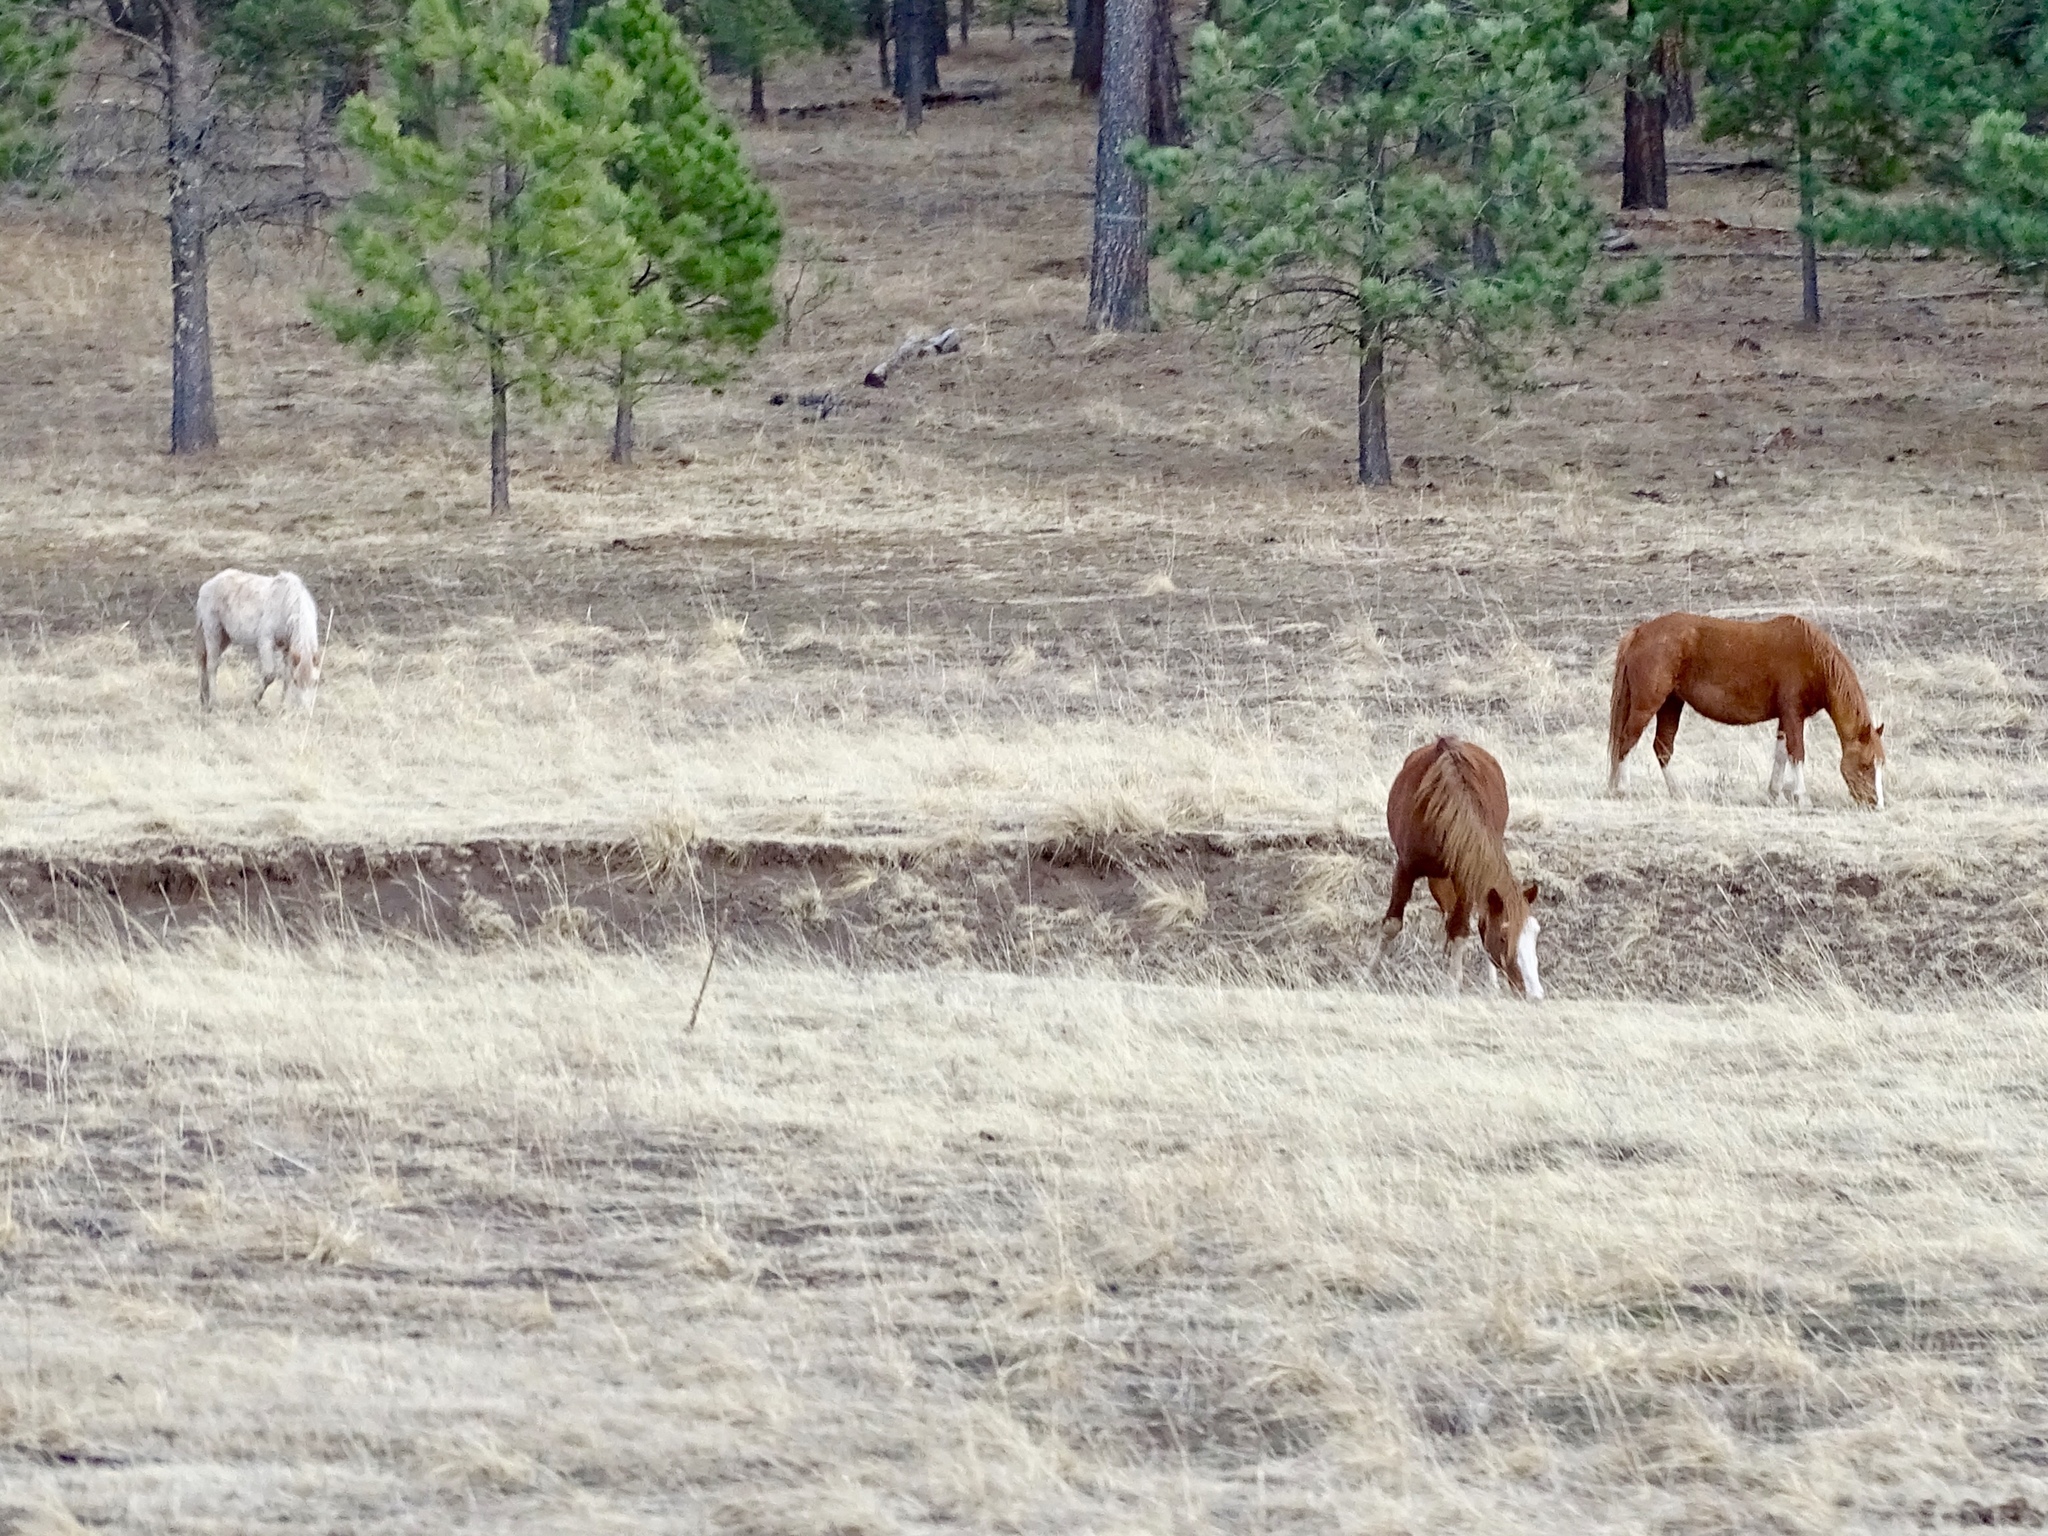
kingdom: Animalia
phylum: Chordata
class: Mammalia
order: Perissodactyla
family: Equidae
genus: Equus
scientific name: Equus caballus
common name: Horse
